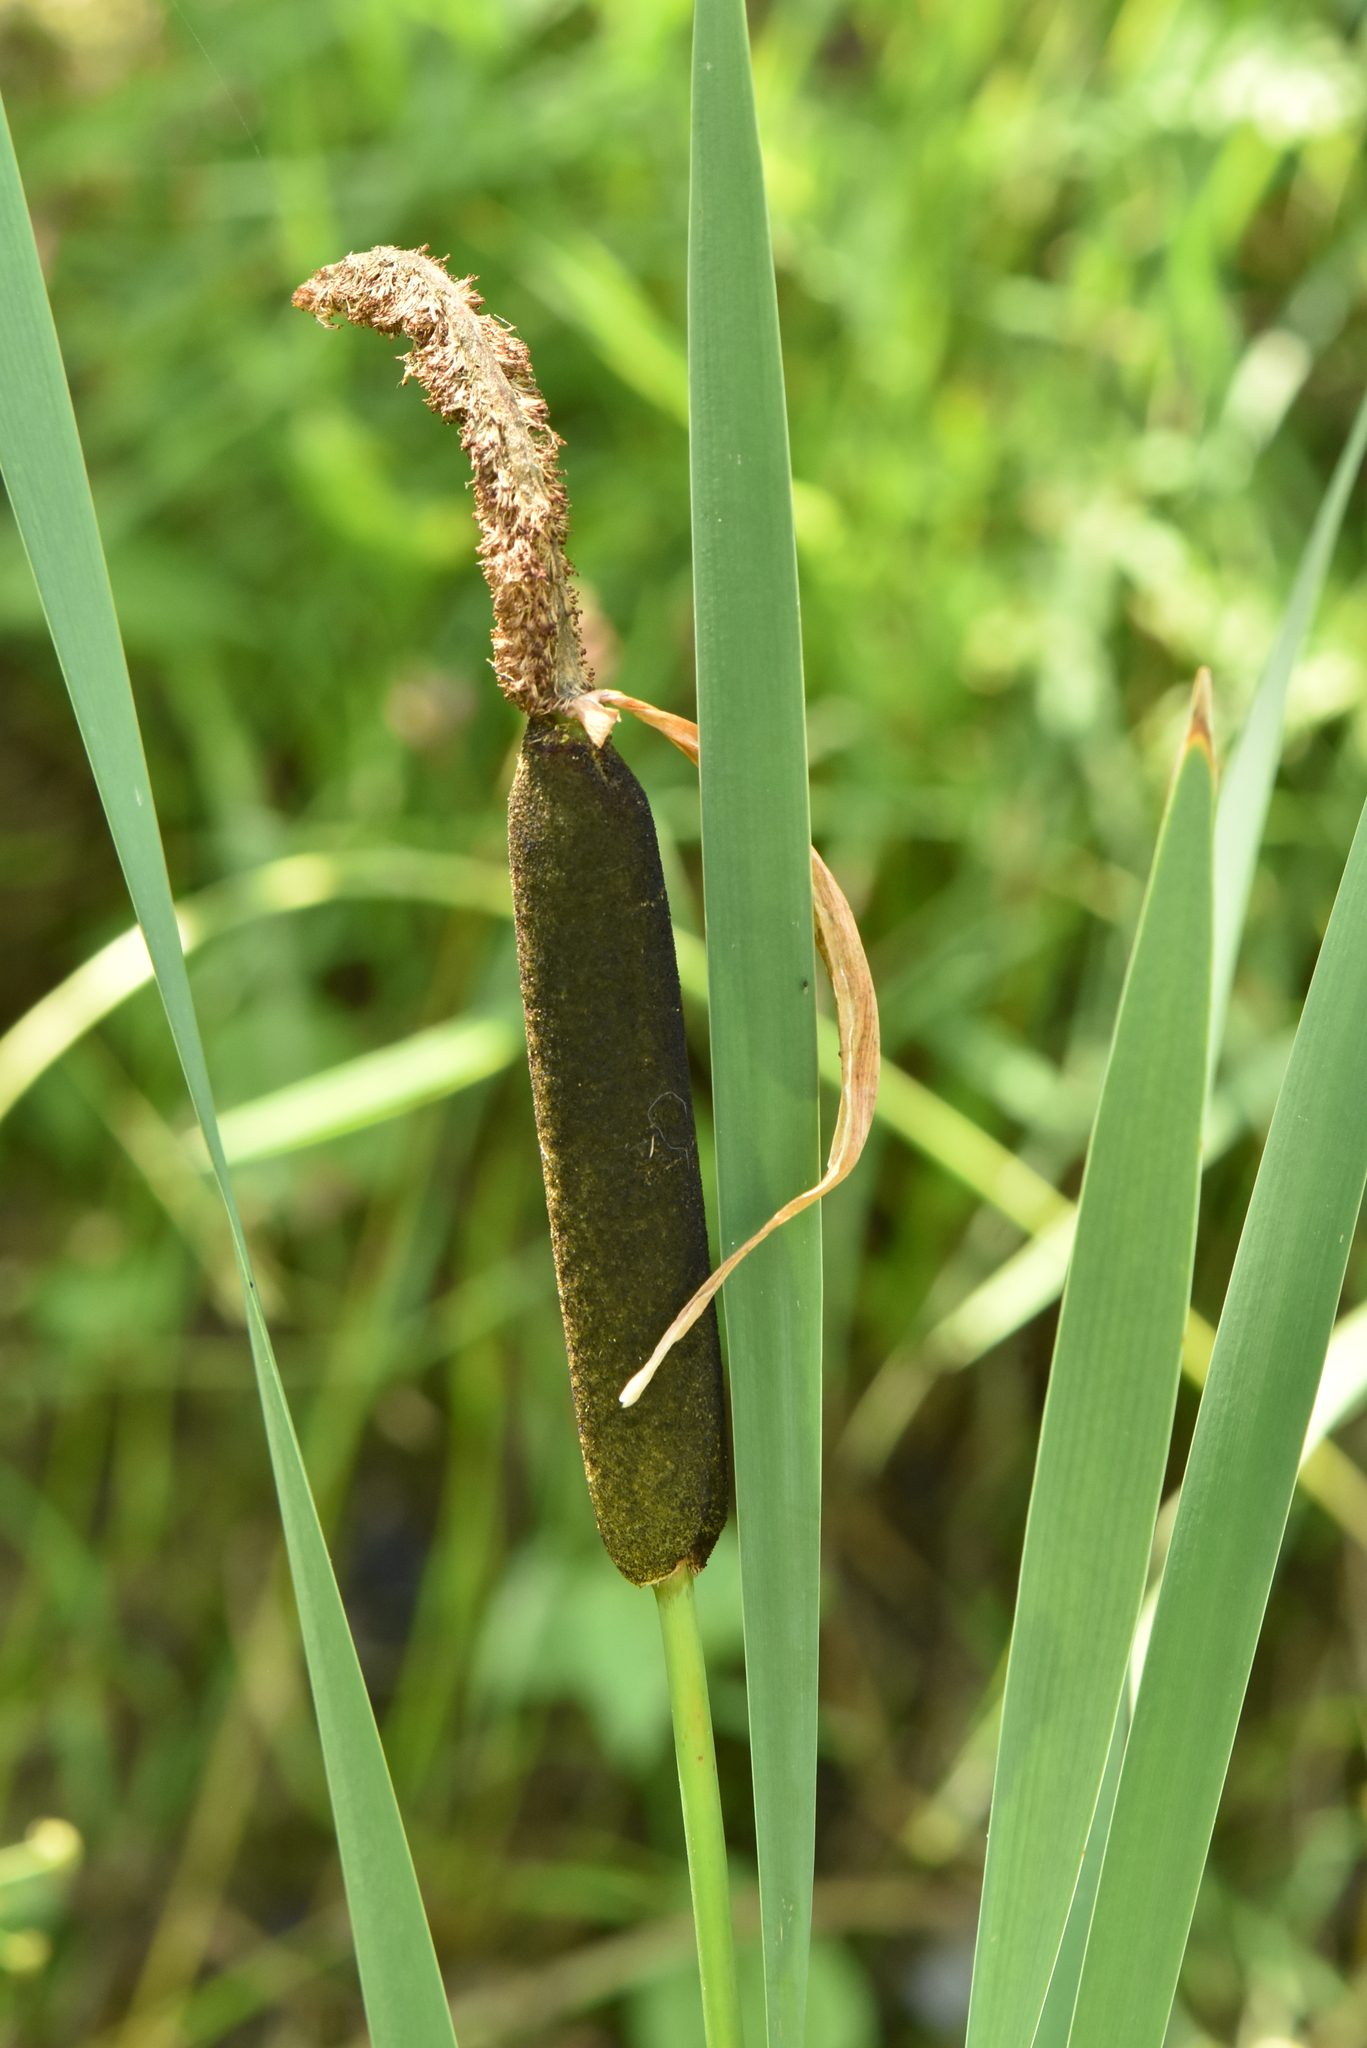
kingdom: Plantae
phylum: Tracheophyta
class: Liliopsida
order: Poales
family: Typhaceae
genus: Typha
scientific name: Typha latifolia
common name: Broadleaf cattail
